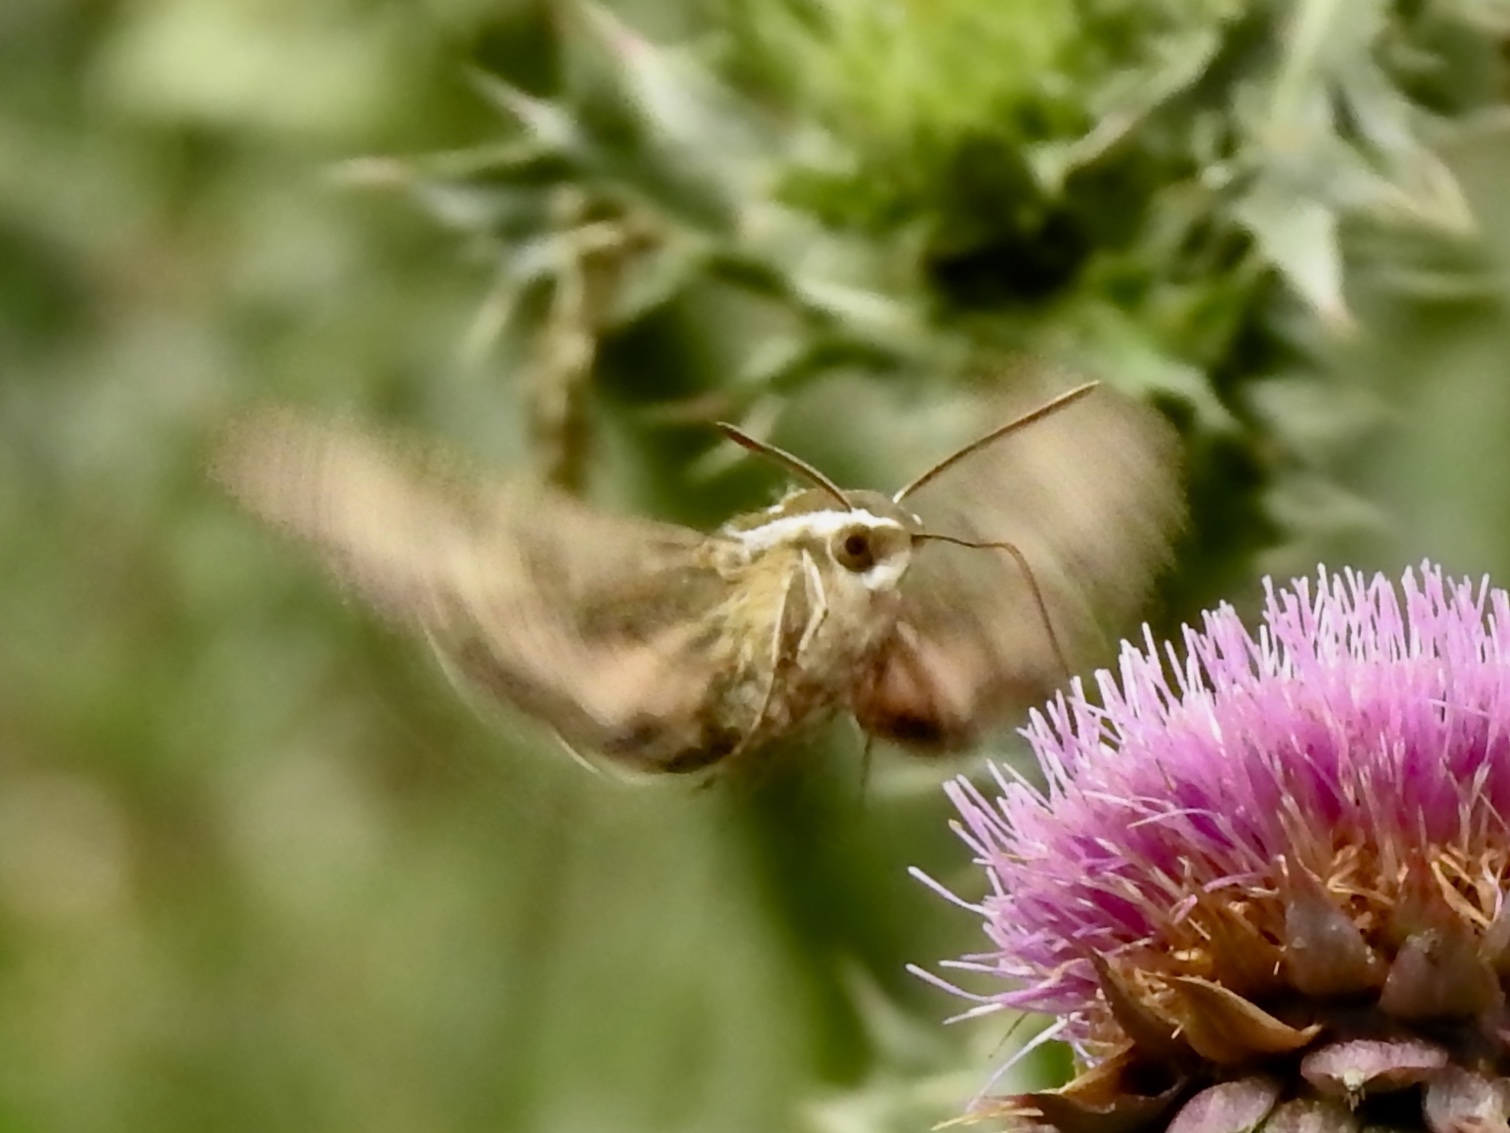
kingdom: Animalia
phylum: Arthropoda
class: Insecta
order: Lepidoptera
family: Sphingidae
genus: Hyles
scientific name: Hyles lineata
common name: White-lined sphinx
